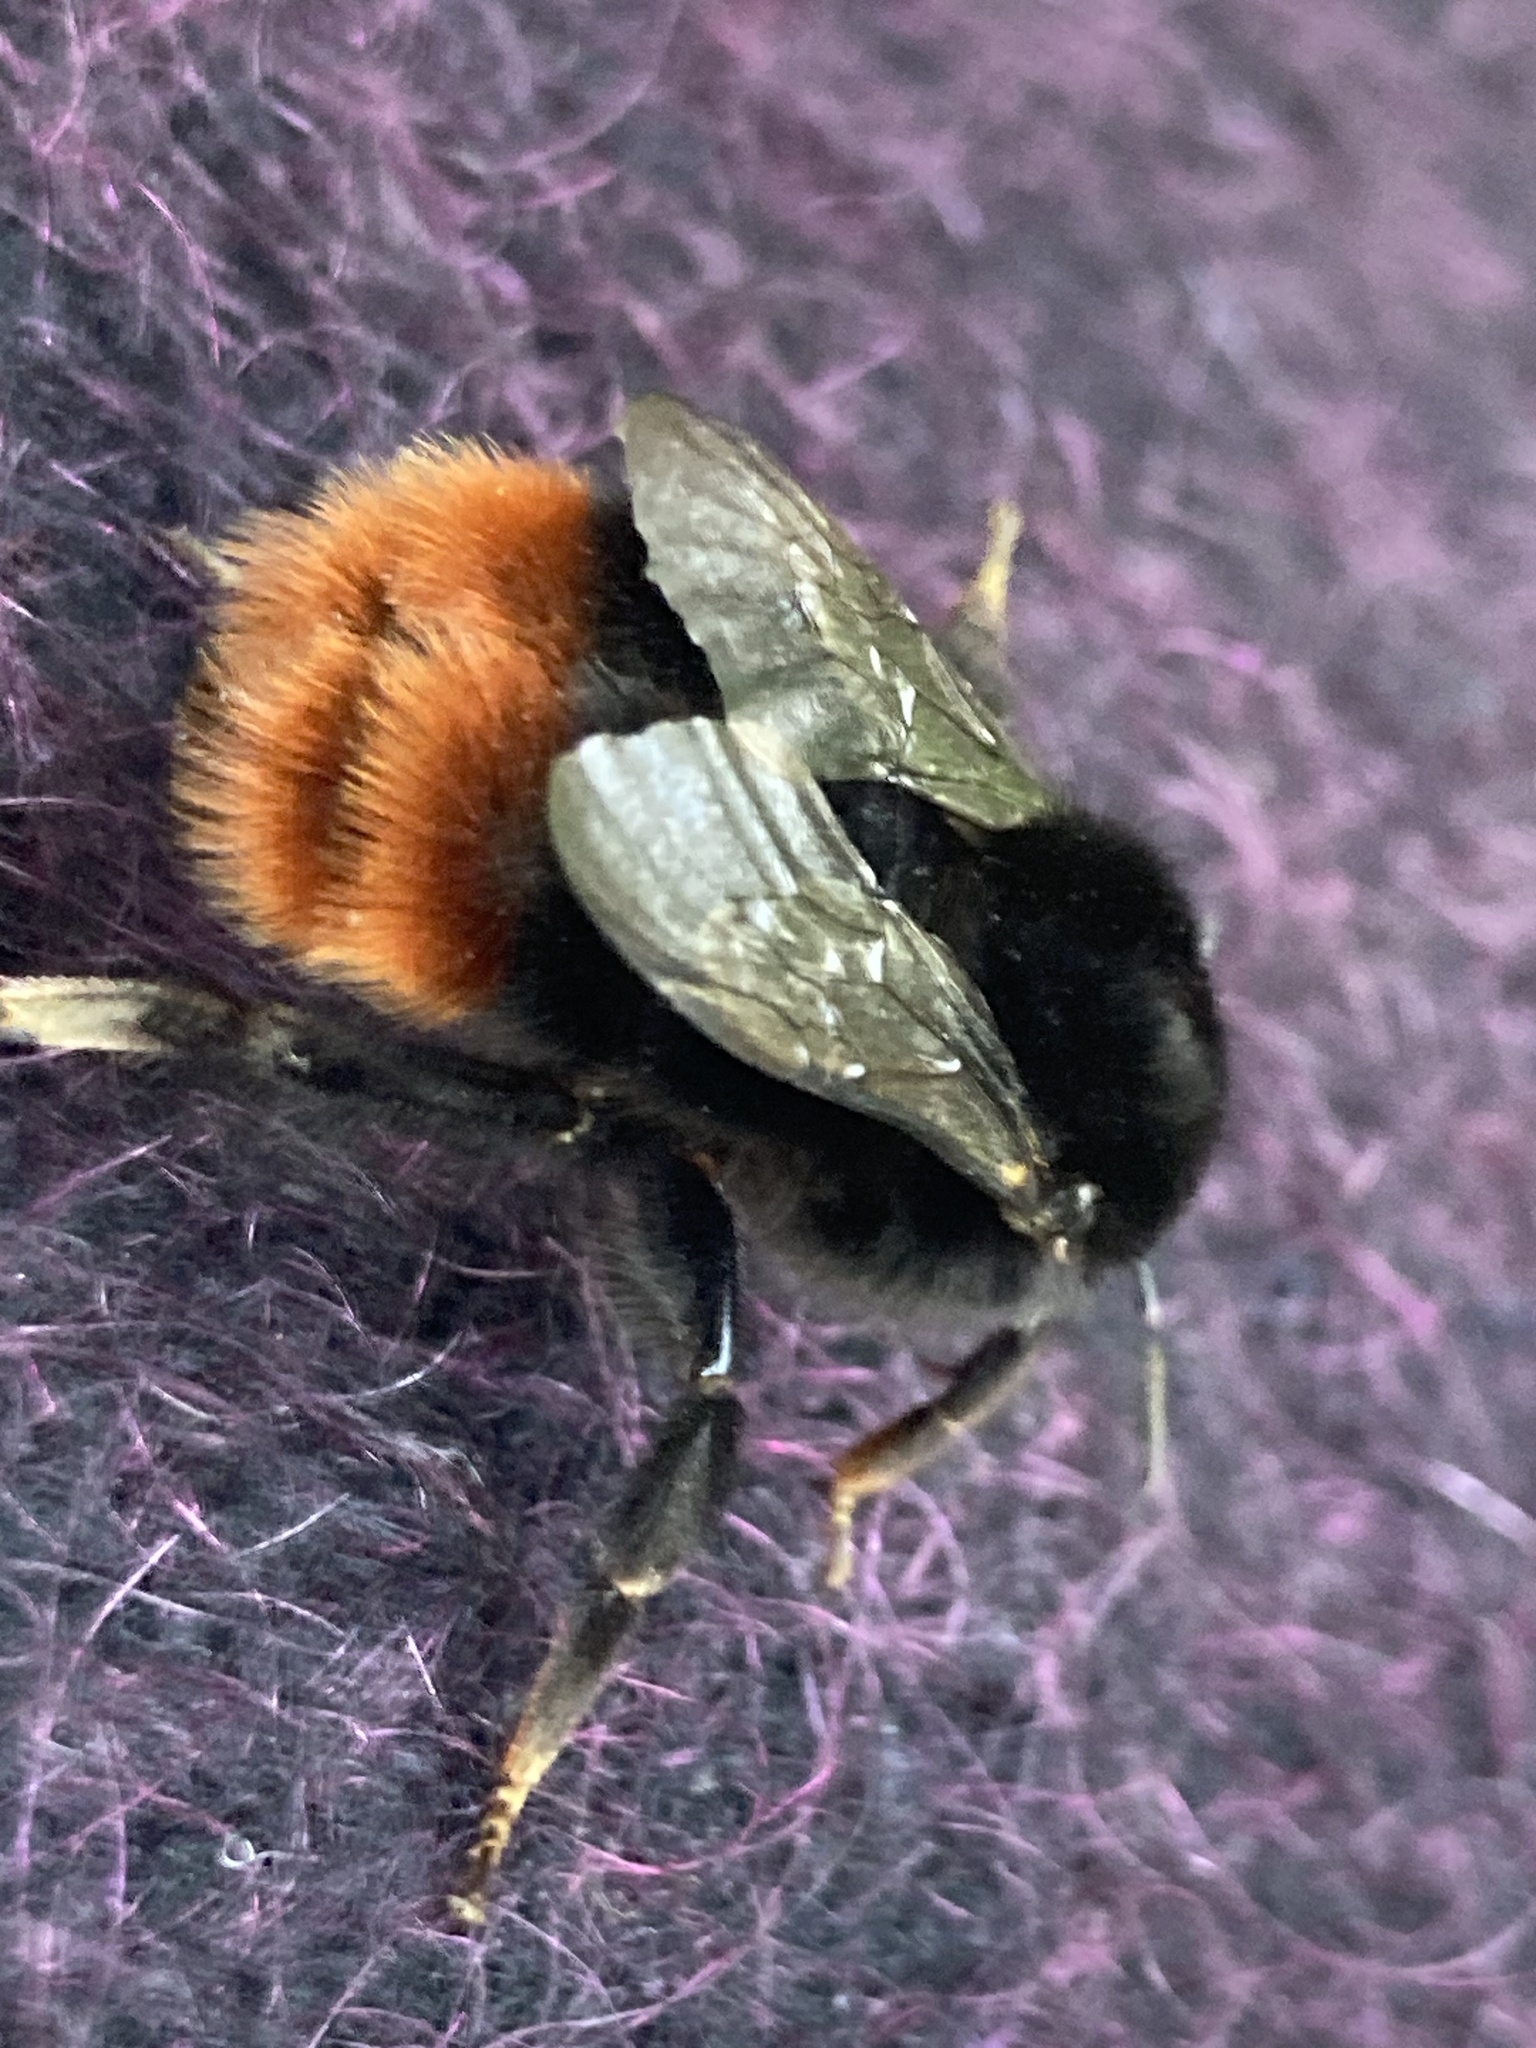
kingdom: Animalia
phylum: Arthropoda
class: Insecta
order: Hymenoptera
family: Apidae
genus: Bombus
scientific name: Bombus lapidarius
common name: Large red-tailed humble-bee
